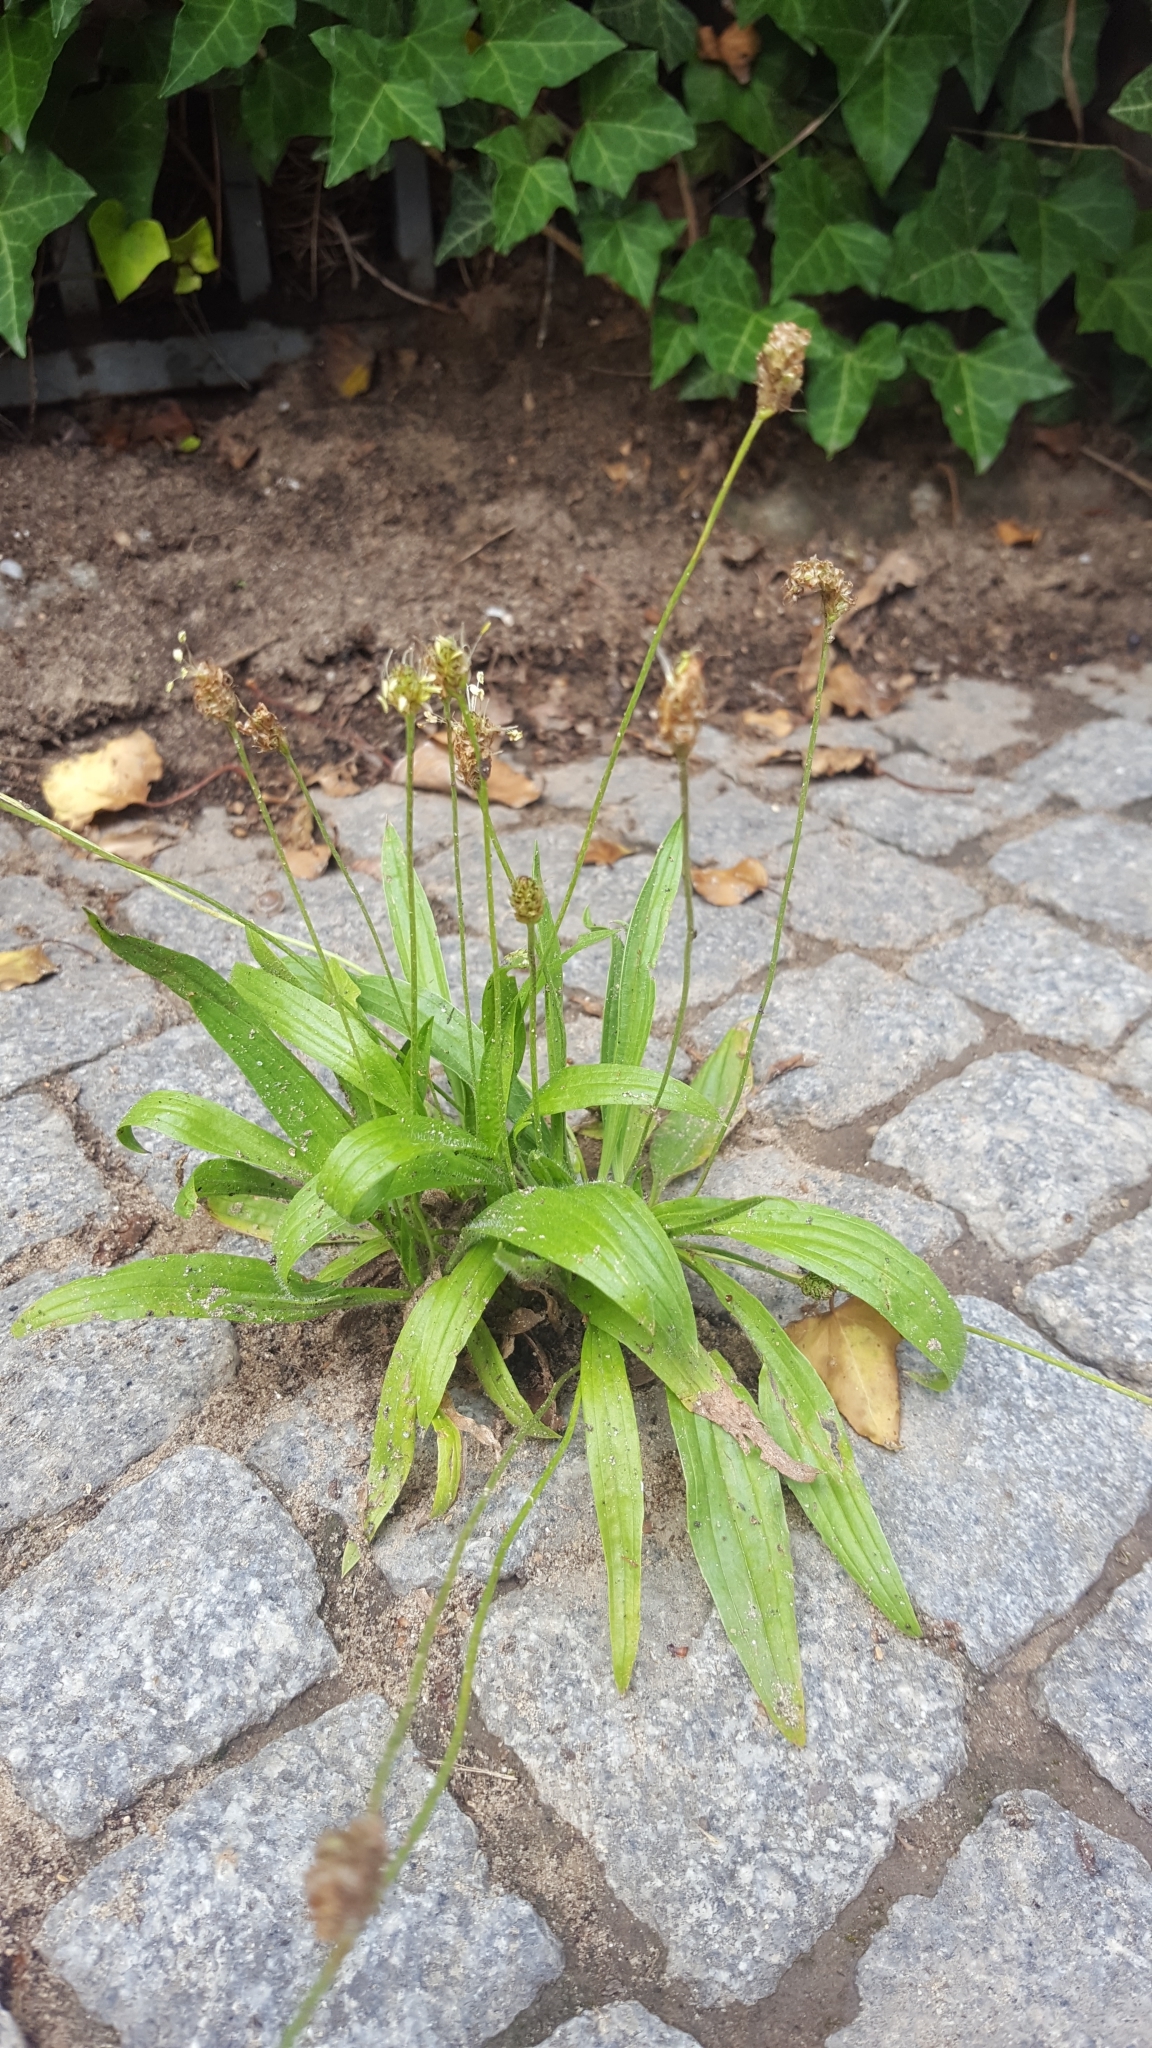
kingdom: Plantae
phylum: Tracheophyta
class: Magnoliopsida
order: Lamiales
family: Plantaginaceae
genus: Plantago
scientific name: Plantago lanceolata
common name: Ribwort plantain
